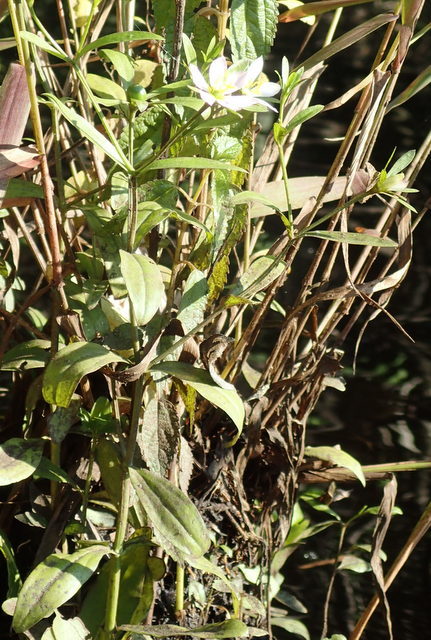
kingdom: Plantae
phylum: Tracheophyta
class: Magnoliopsida
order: Gentianales
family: Gentianaceae
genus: Sabatia
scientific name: Sabatia calycina
